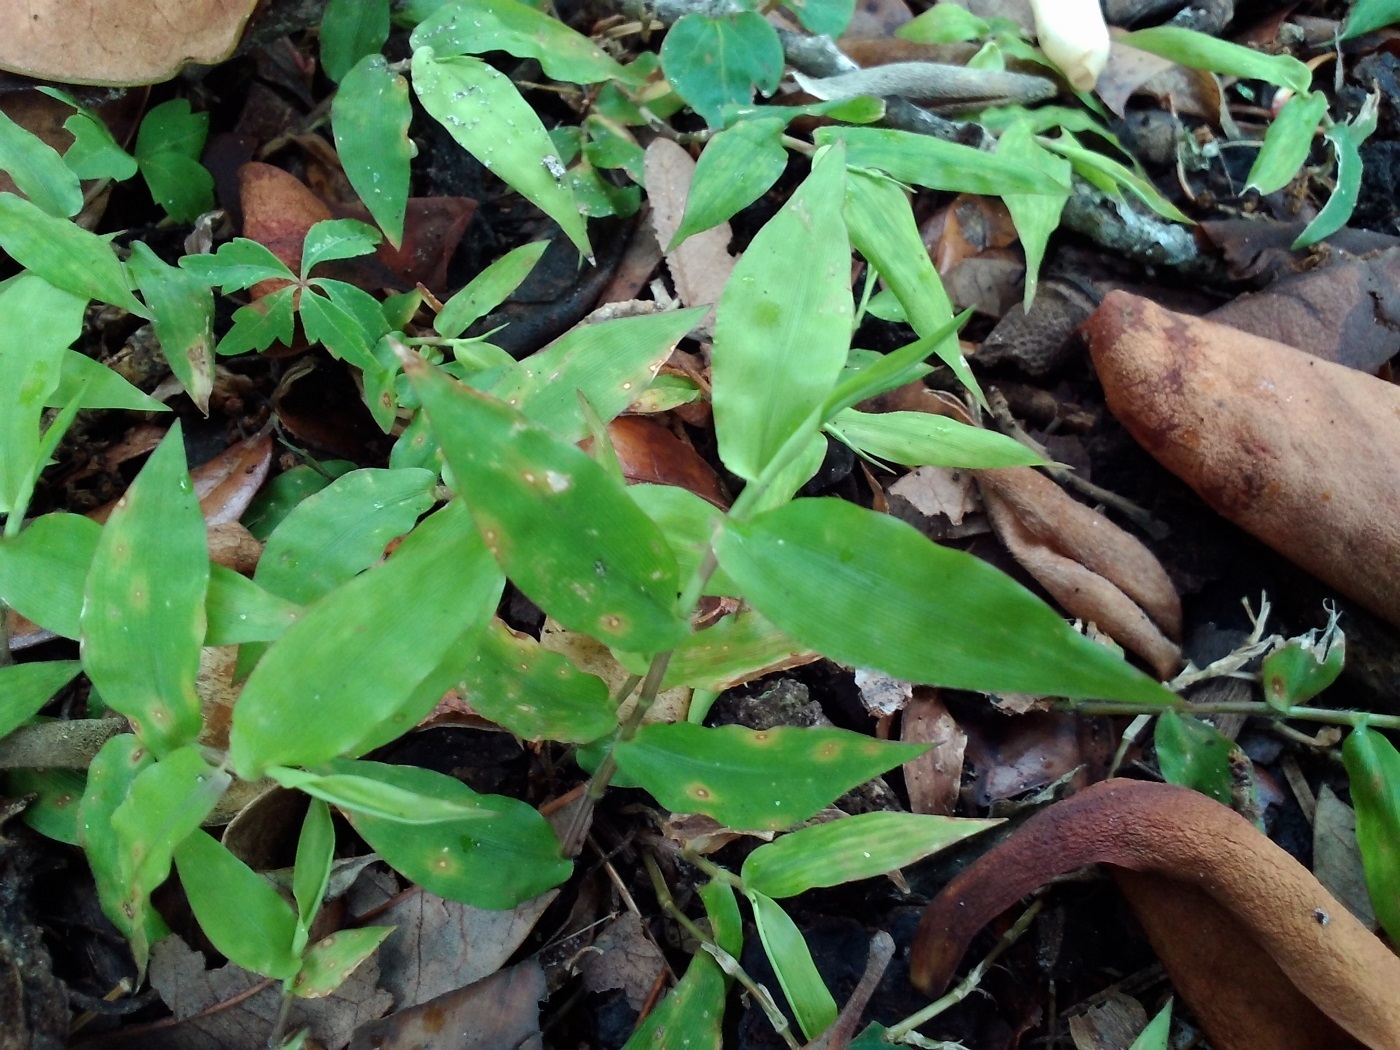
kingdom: Plantae
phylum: Tracheophyta
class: Liliopsida
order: Poales
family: Poaceae
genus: Oplismenus
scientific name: Oplismenus compositus
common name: Running mountain grass
